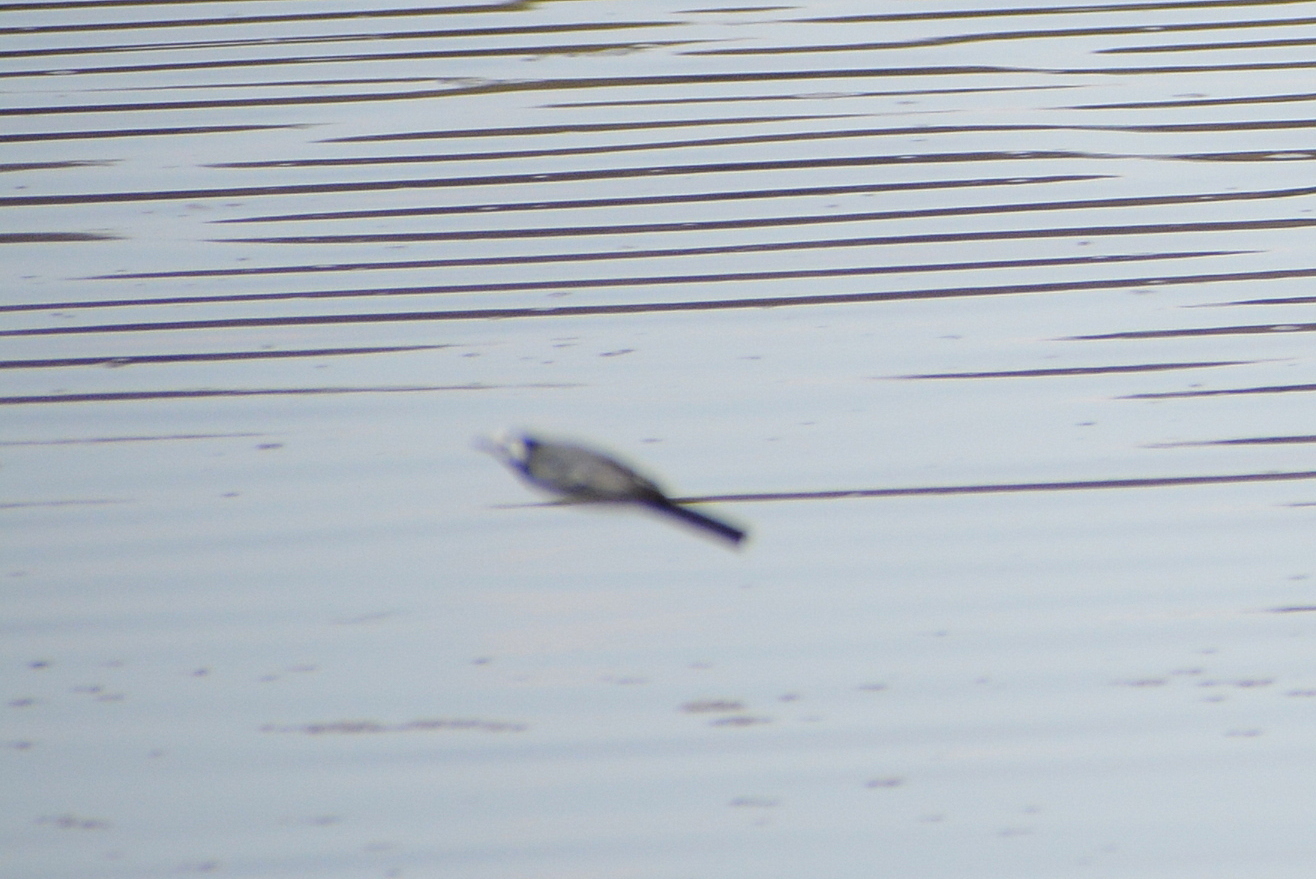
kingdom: Animalia
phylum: Chordata
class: Aves
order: Passeriformes
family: Motacillidae
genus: Motacilla
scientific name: Motacilla alba
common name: White wagtail
